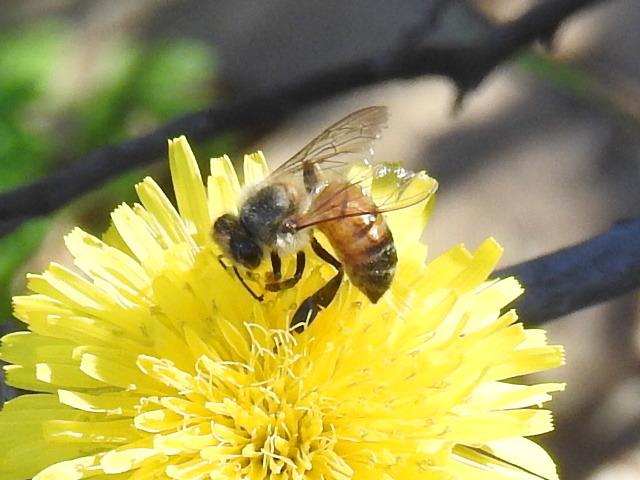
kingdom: Animalia
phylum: Arthropoda
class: Insecta
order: Hymenoptera
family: Apidae
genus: Apis
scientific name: Apis mellifera
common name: Honey bee
